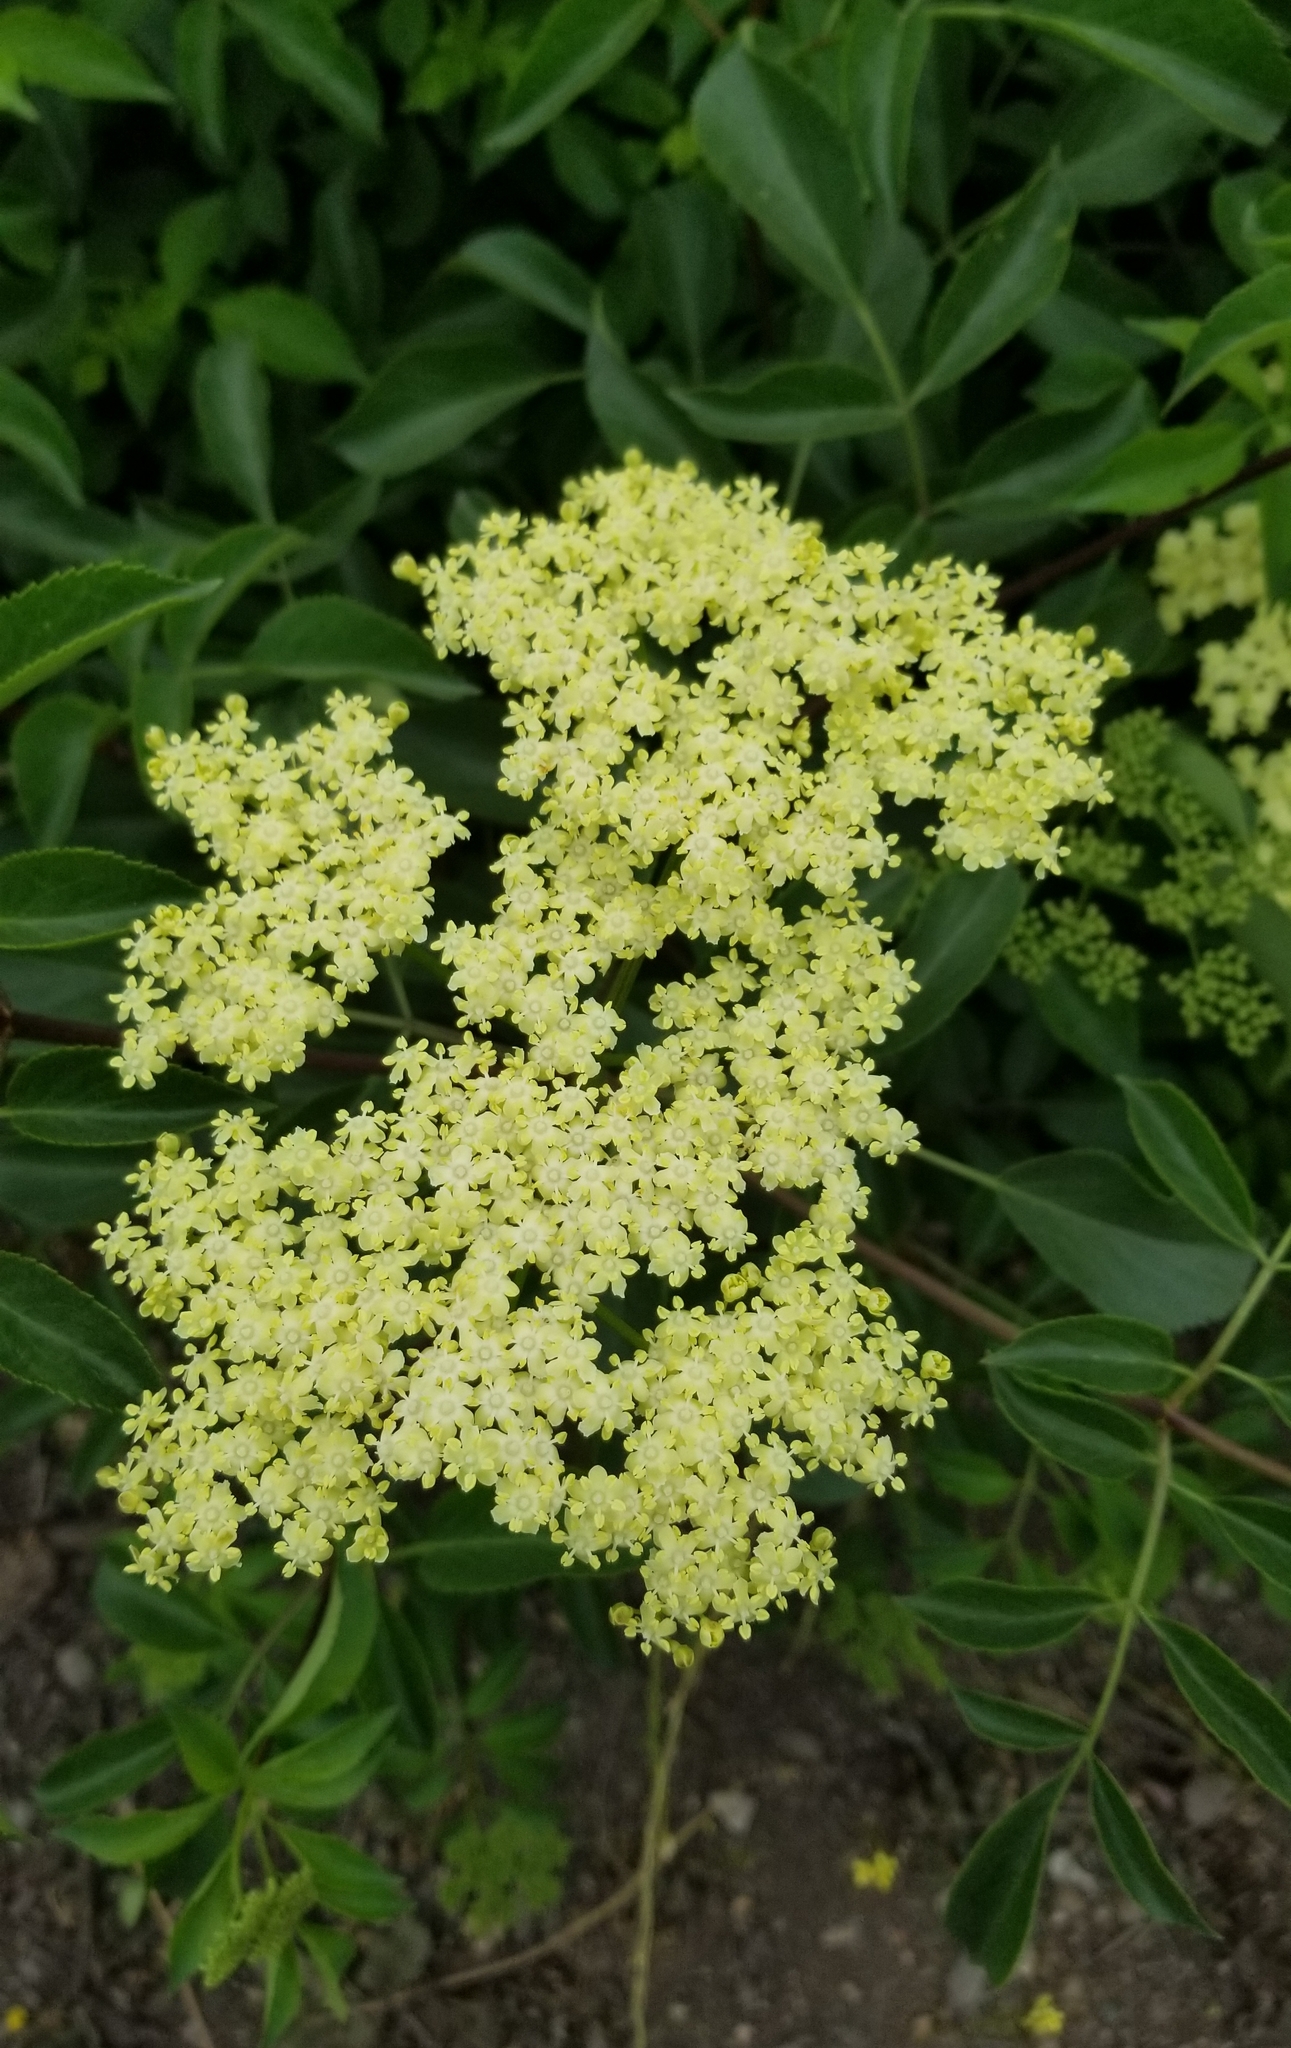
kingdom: Plantae
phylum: Tracheophyta
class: Magnoliopsida
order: Dipsacales
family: Viburnaceae
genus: Sambucus
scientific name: Sambucus cerulea
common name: Blue elder
